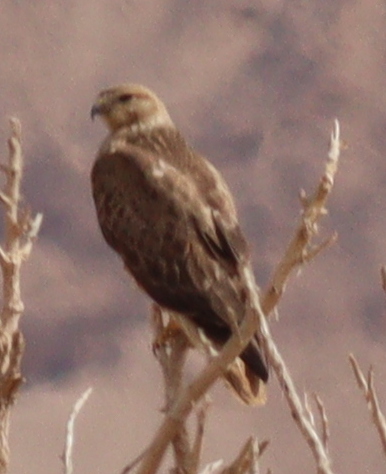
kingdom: Animalia
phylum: Chordata
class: Aves
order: Accipitriformes
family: Accipitridae
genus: Buteo
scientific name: Buteo rufinus
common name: Long-legged buzzard
